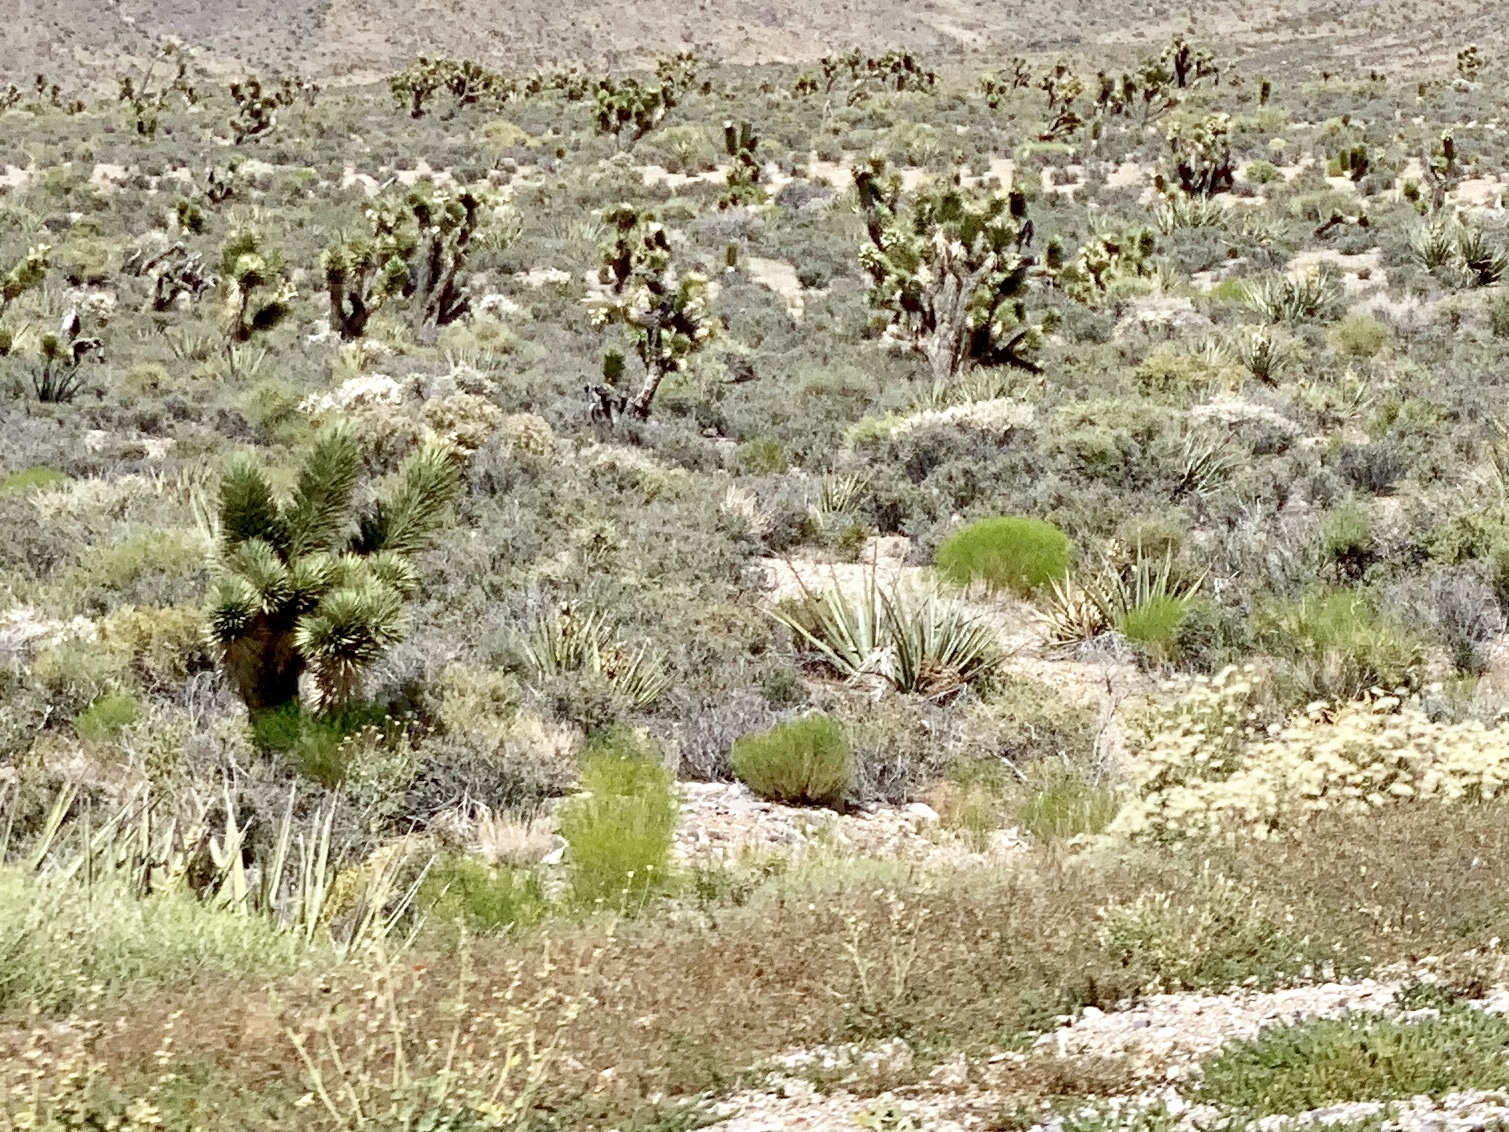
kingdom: Plantae
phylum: Tracheophyta
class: Liliopsida
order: Asparagales
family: Asparagaceae
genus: Yucca
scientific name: Yucca brevifolia
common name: Joshua tree
